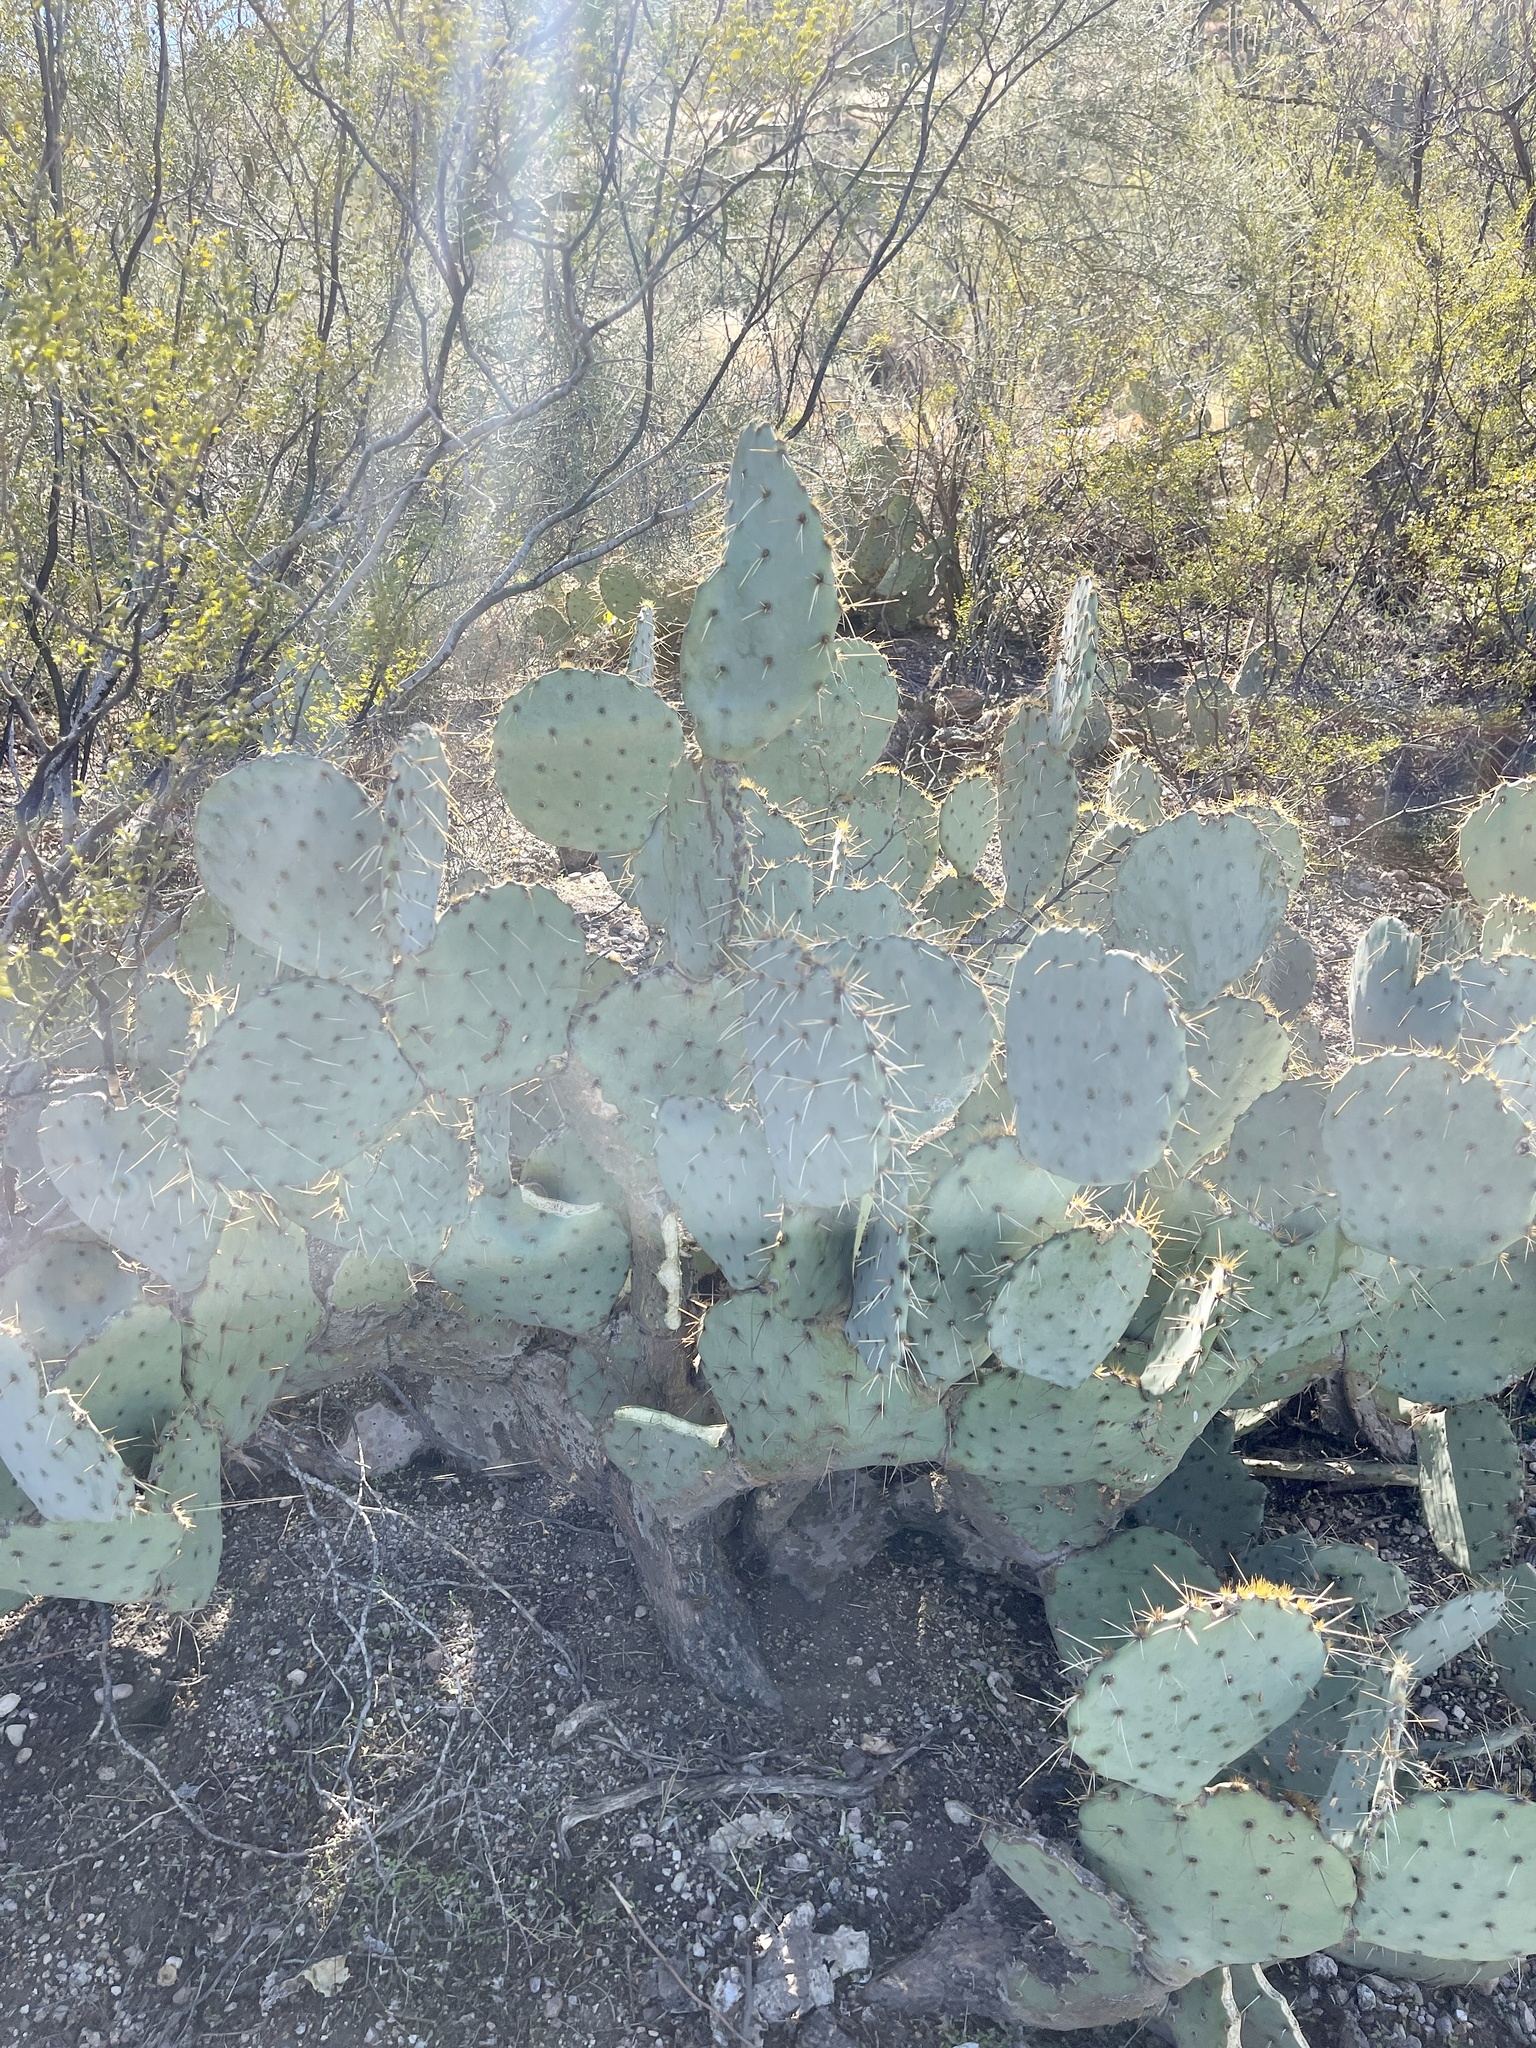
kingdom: Plantae
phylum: Tracheophyta
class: Magnoliopsida
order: Caryophyllales
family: Cactaceae
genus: Opuntia
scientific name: Opuntia engelmannii
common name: Cactus-apple
